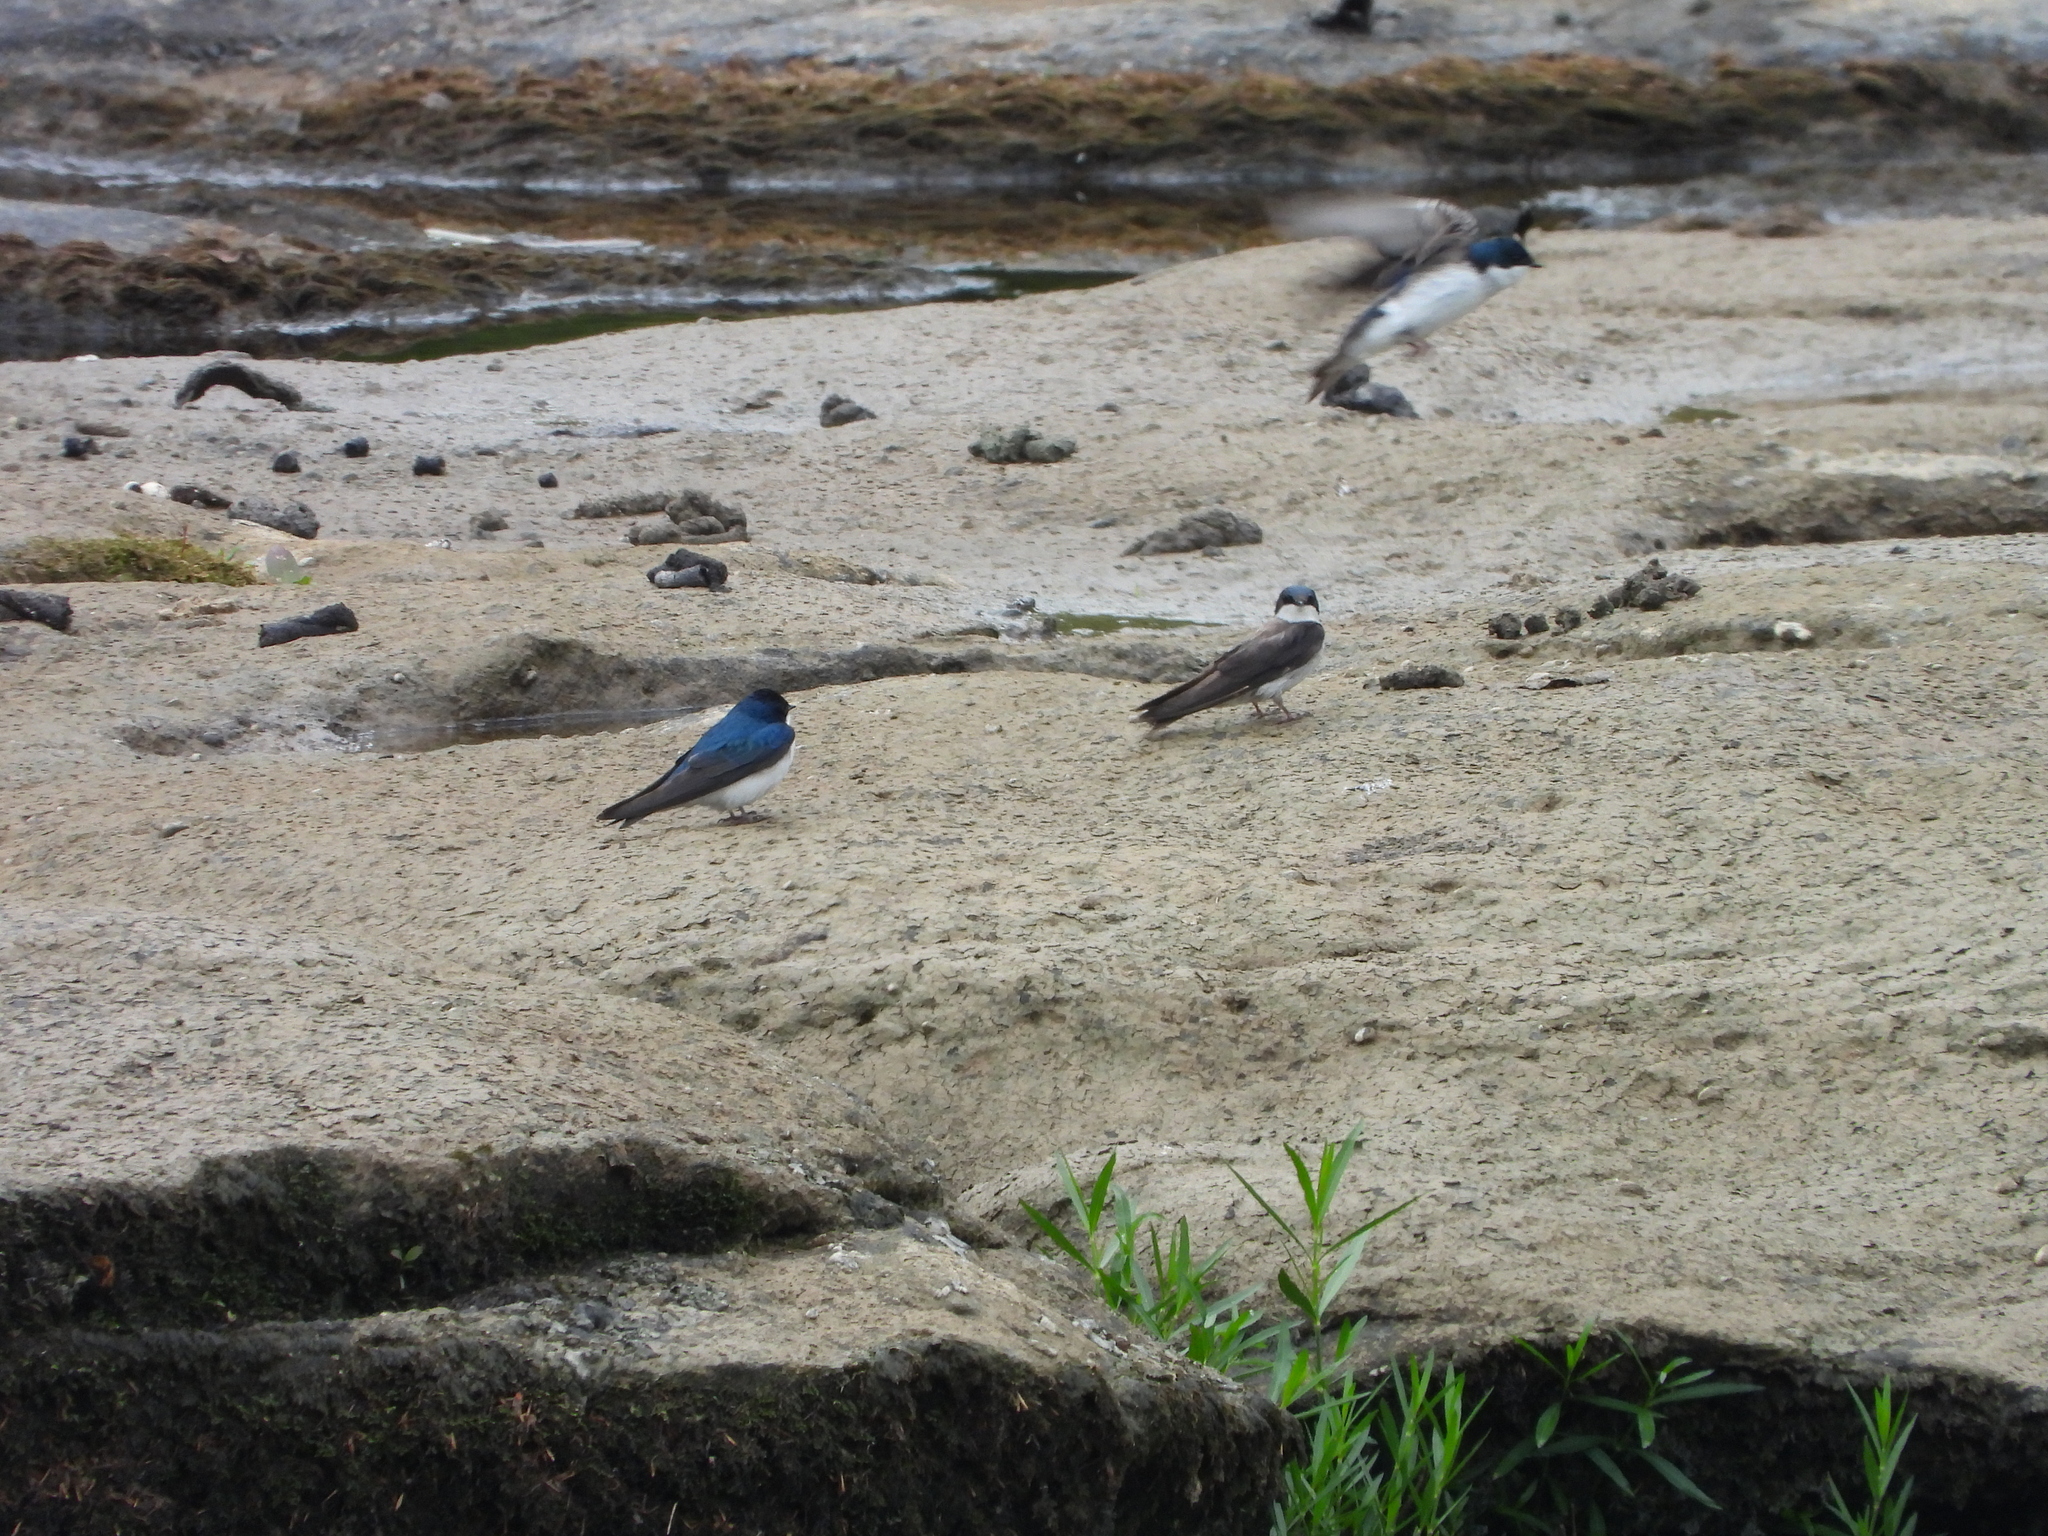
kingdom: Animalia
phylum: Chordata
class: Aves
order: Passeriformes
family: Hirundinidae
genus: Tachycineta
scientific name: Tachycineta bicolor
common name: Tree swallow
